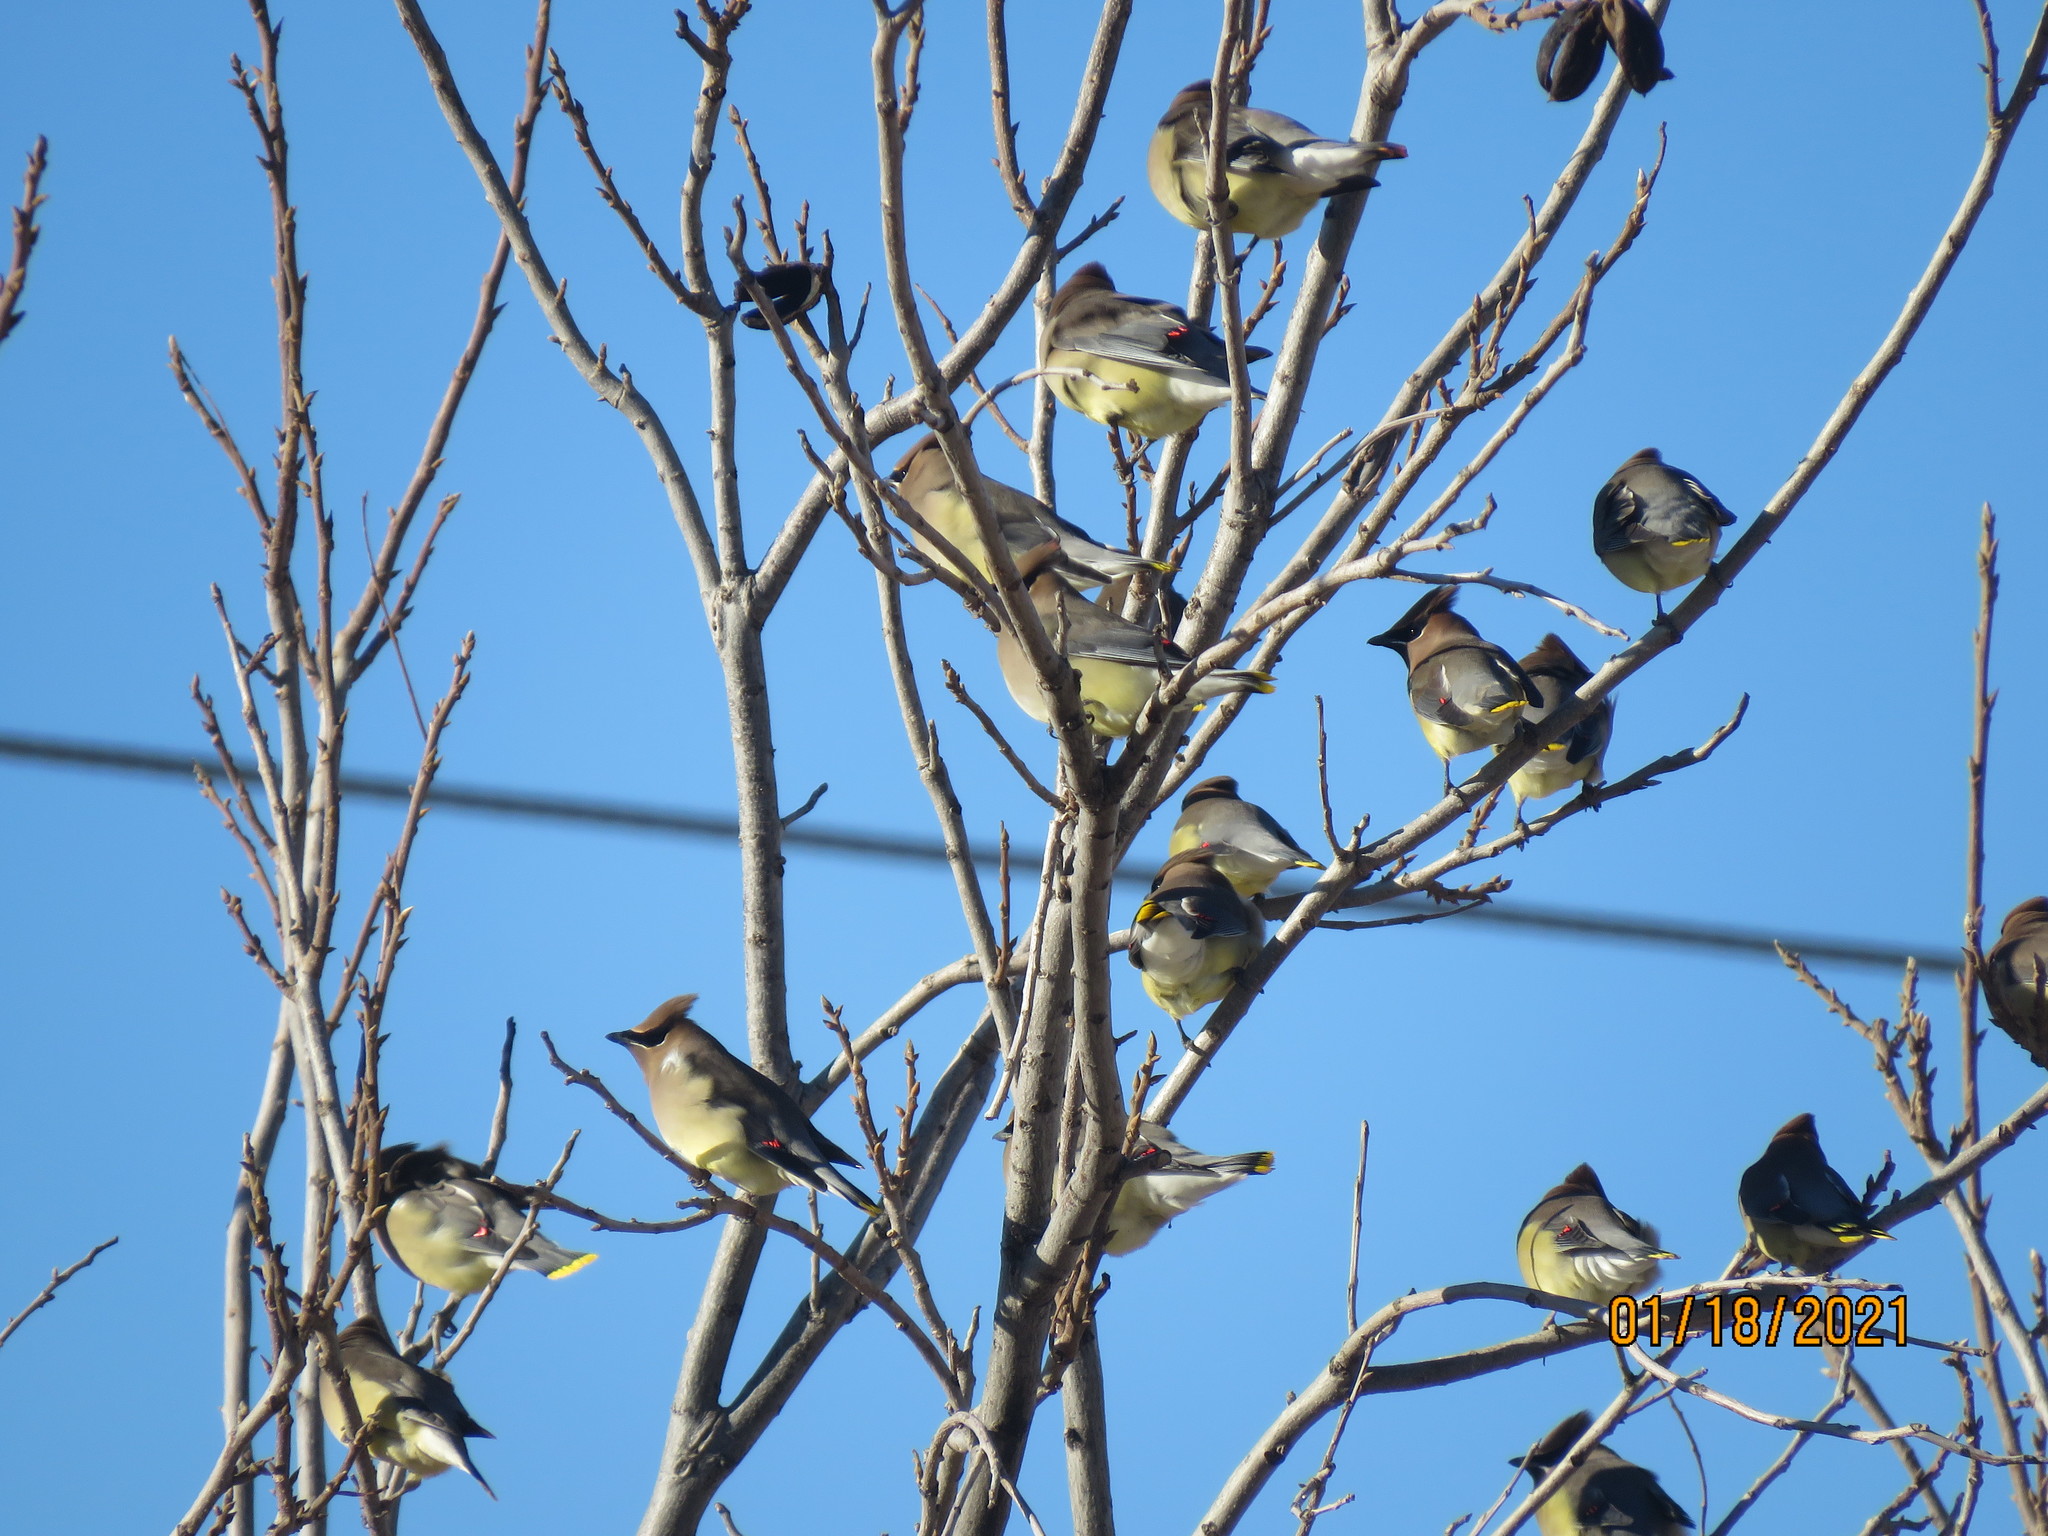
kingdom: Animalia
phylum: Chordata
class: Aves
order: Passeriformes
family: Bombycillidae
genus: Bombycilla
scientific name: Bombycilla cedrorum
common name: Cedar waxwing
